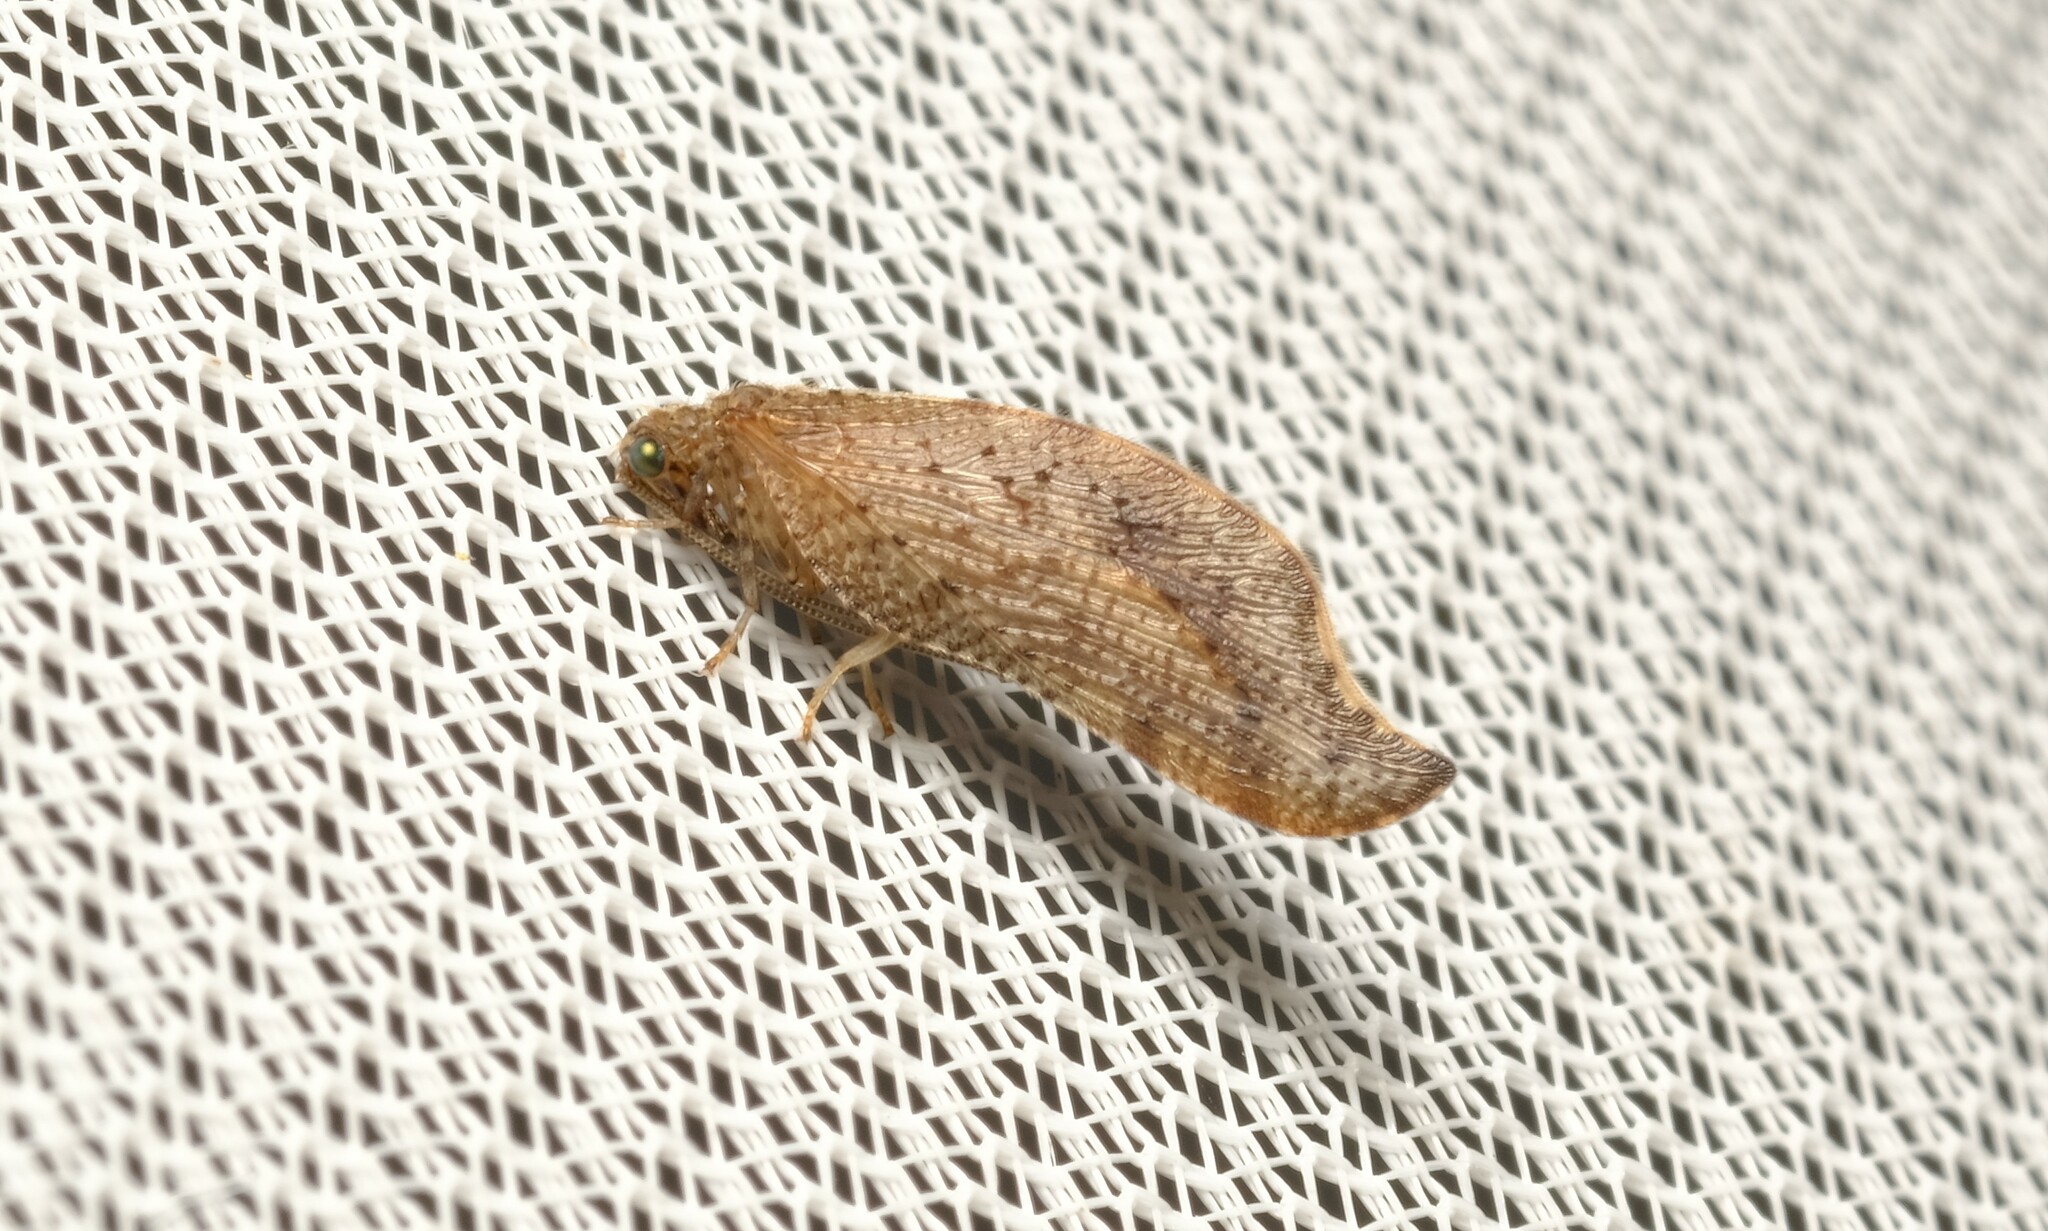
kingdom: Animalia
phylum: Arthropoda
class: Insecta
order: Neuroptera
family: Hemerobiidae
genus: Megalomina
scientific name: Megalomina berothoides
